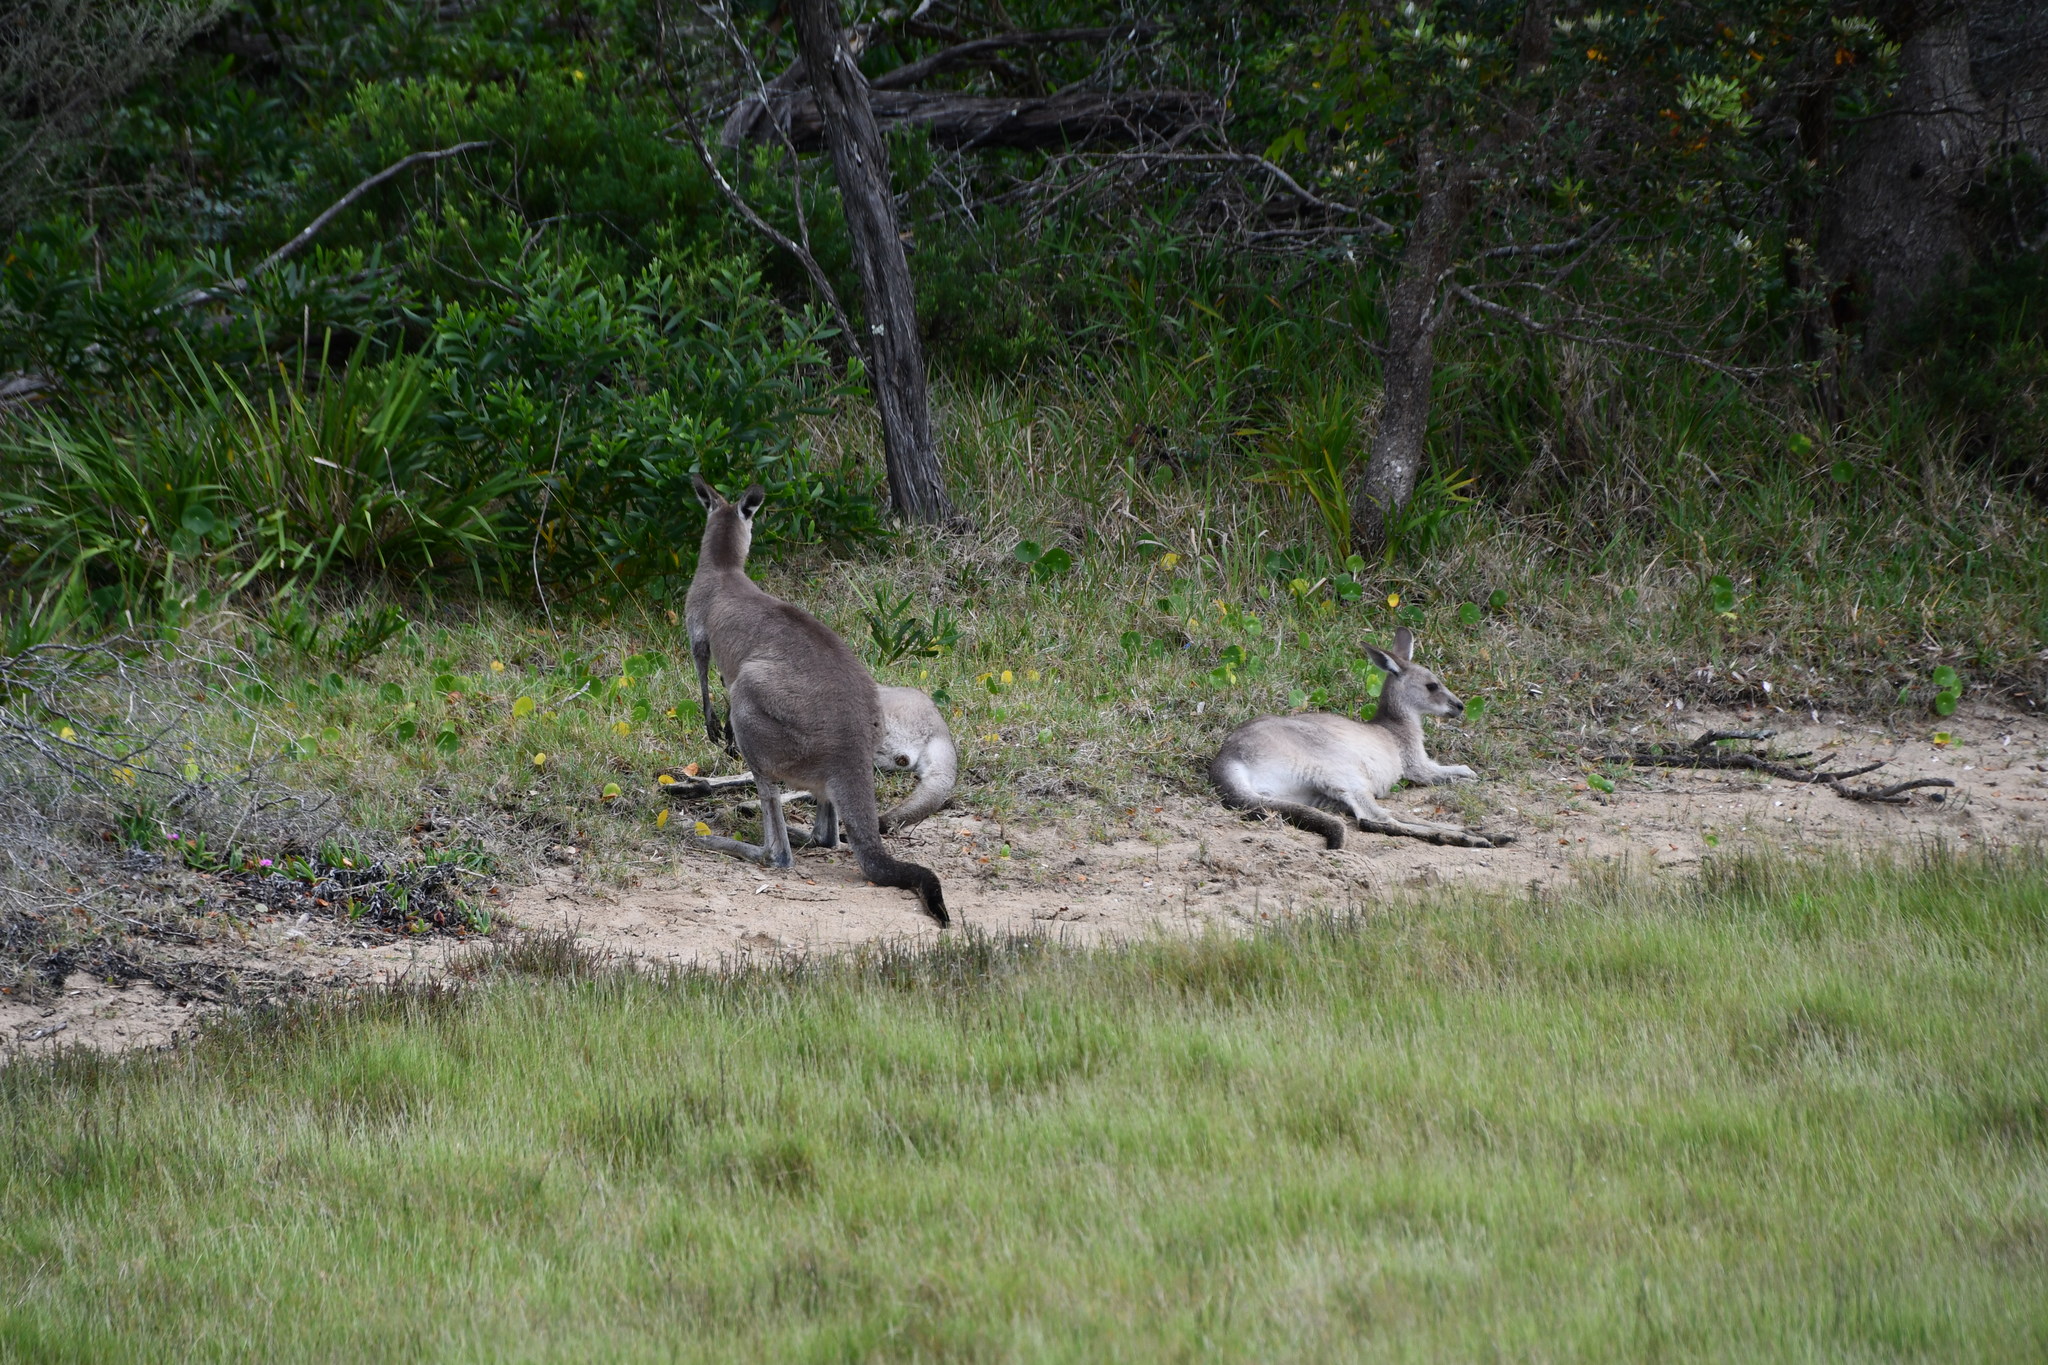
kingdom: Animalia
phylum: Chordata
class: Mammalia
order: Diprotodontia
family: Macropodidae
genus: Macropus
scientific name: Macropus giganteus
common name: Eastern grey kangaroo
